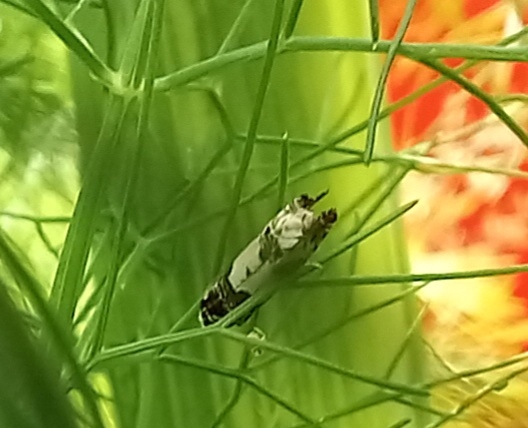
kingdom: Animalia
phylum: Arthropoda
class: Insecta
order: Lepidoptera
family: Tortricidae
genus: Epinotia
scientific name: Epinotia thapsiana
